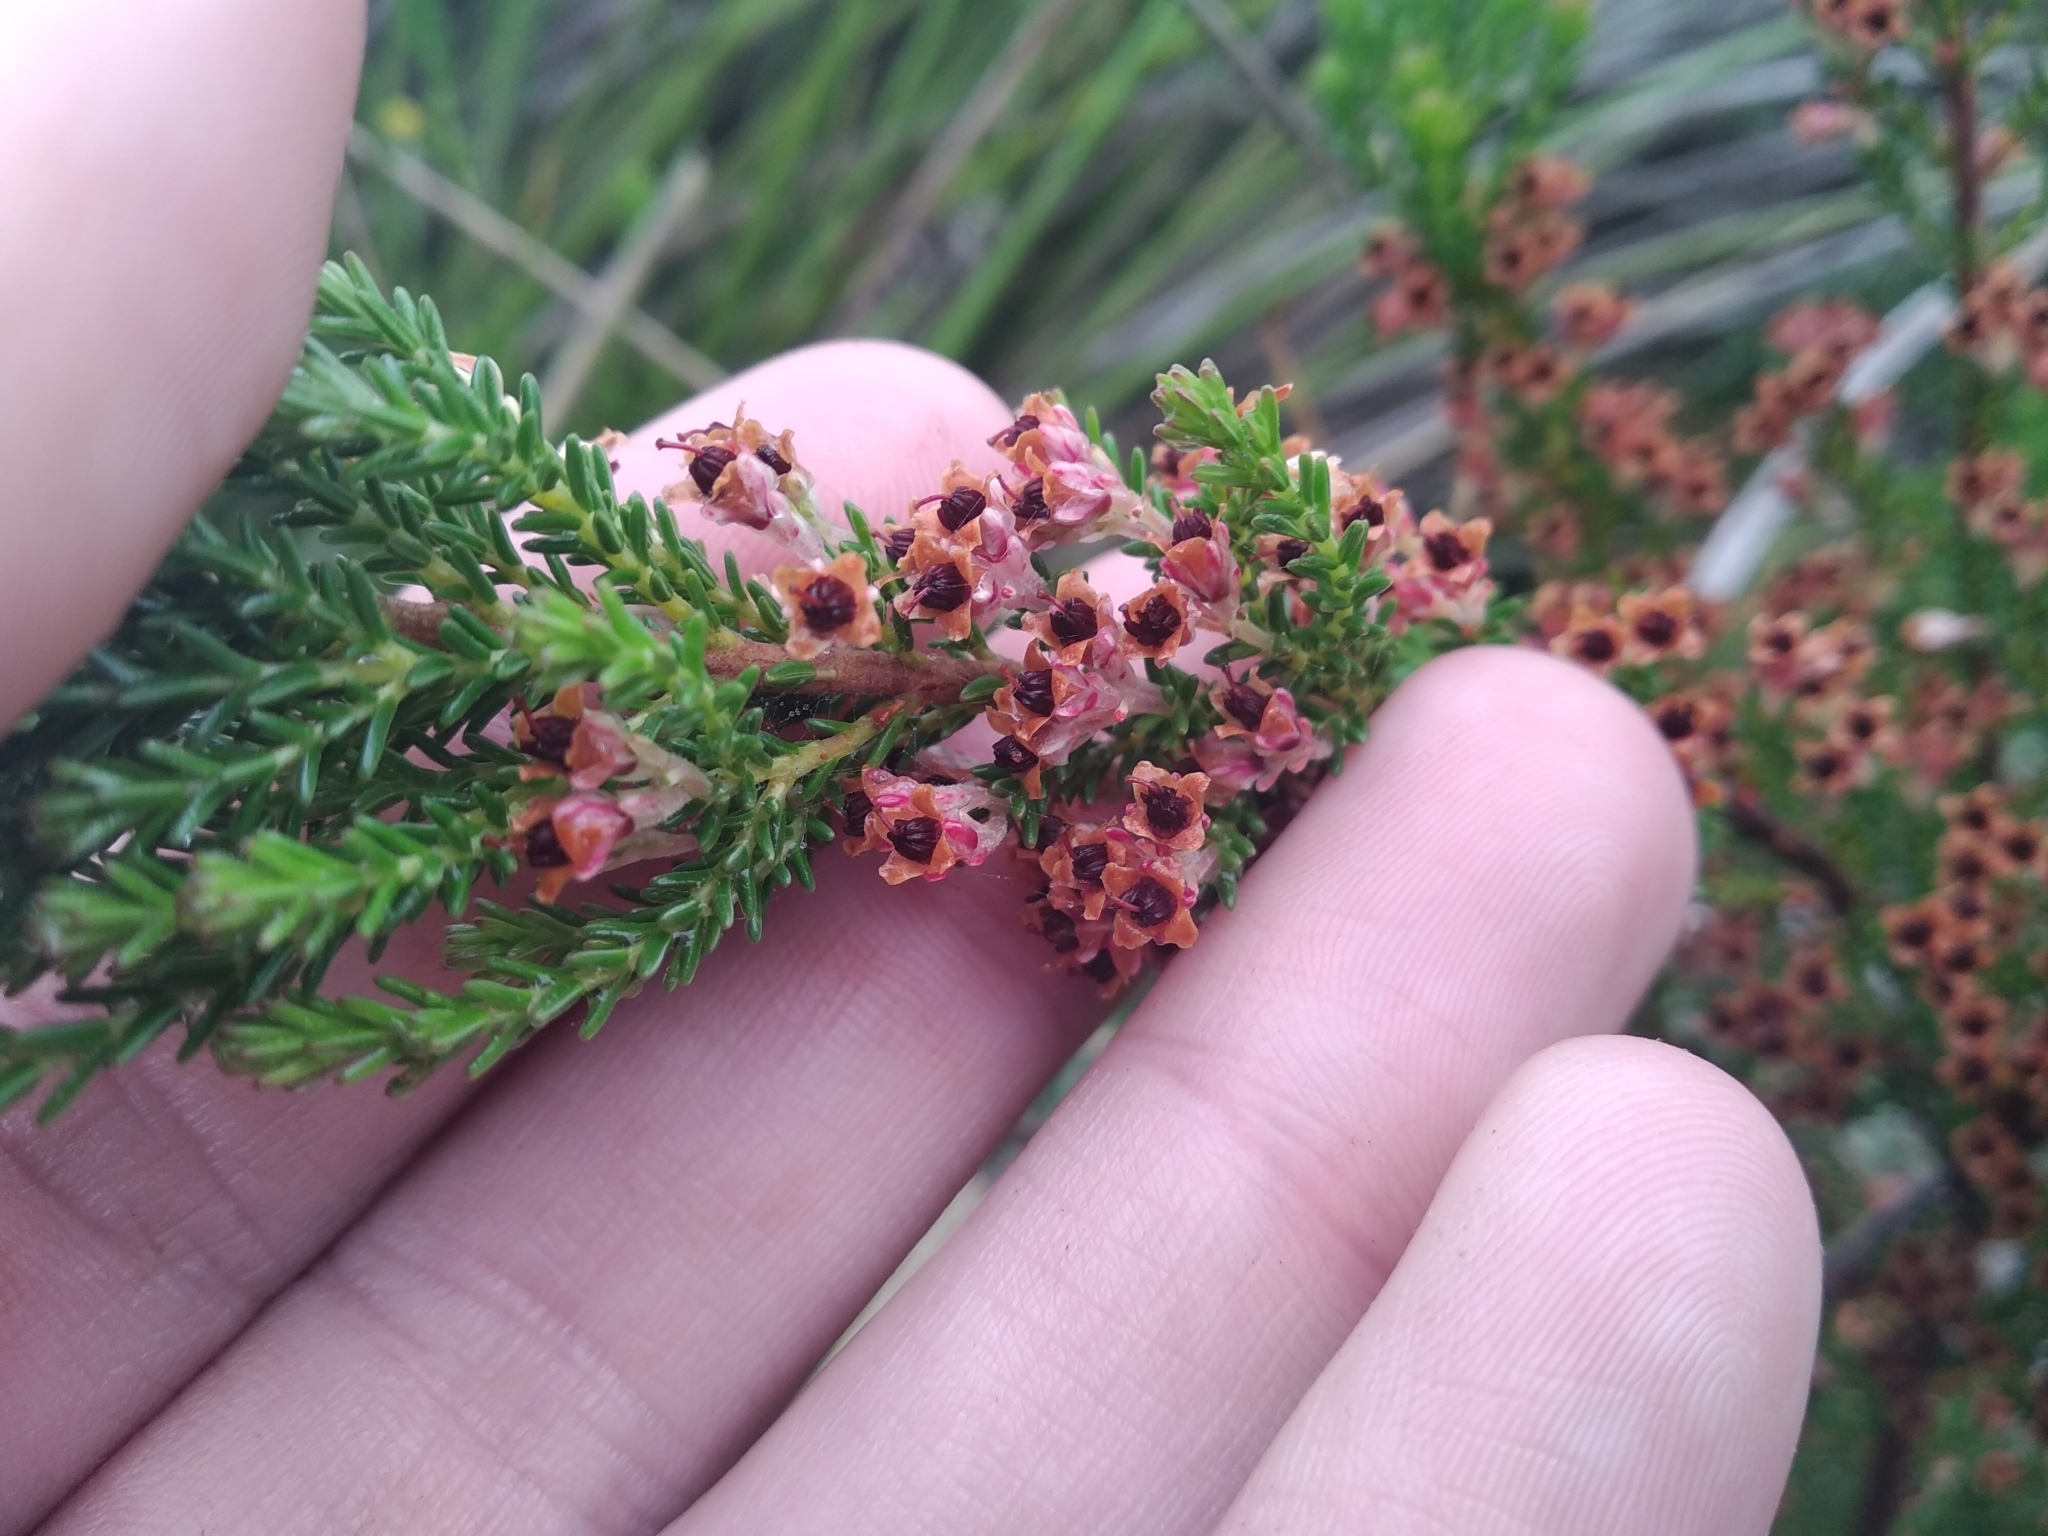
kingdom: Plantae
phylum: Tracheophyta
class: Magnoliopsida
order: Ericales
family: Ericaceae
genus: Erica
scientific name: Erica calycina
